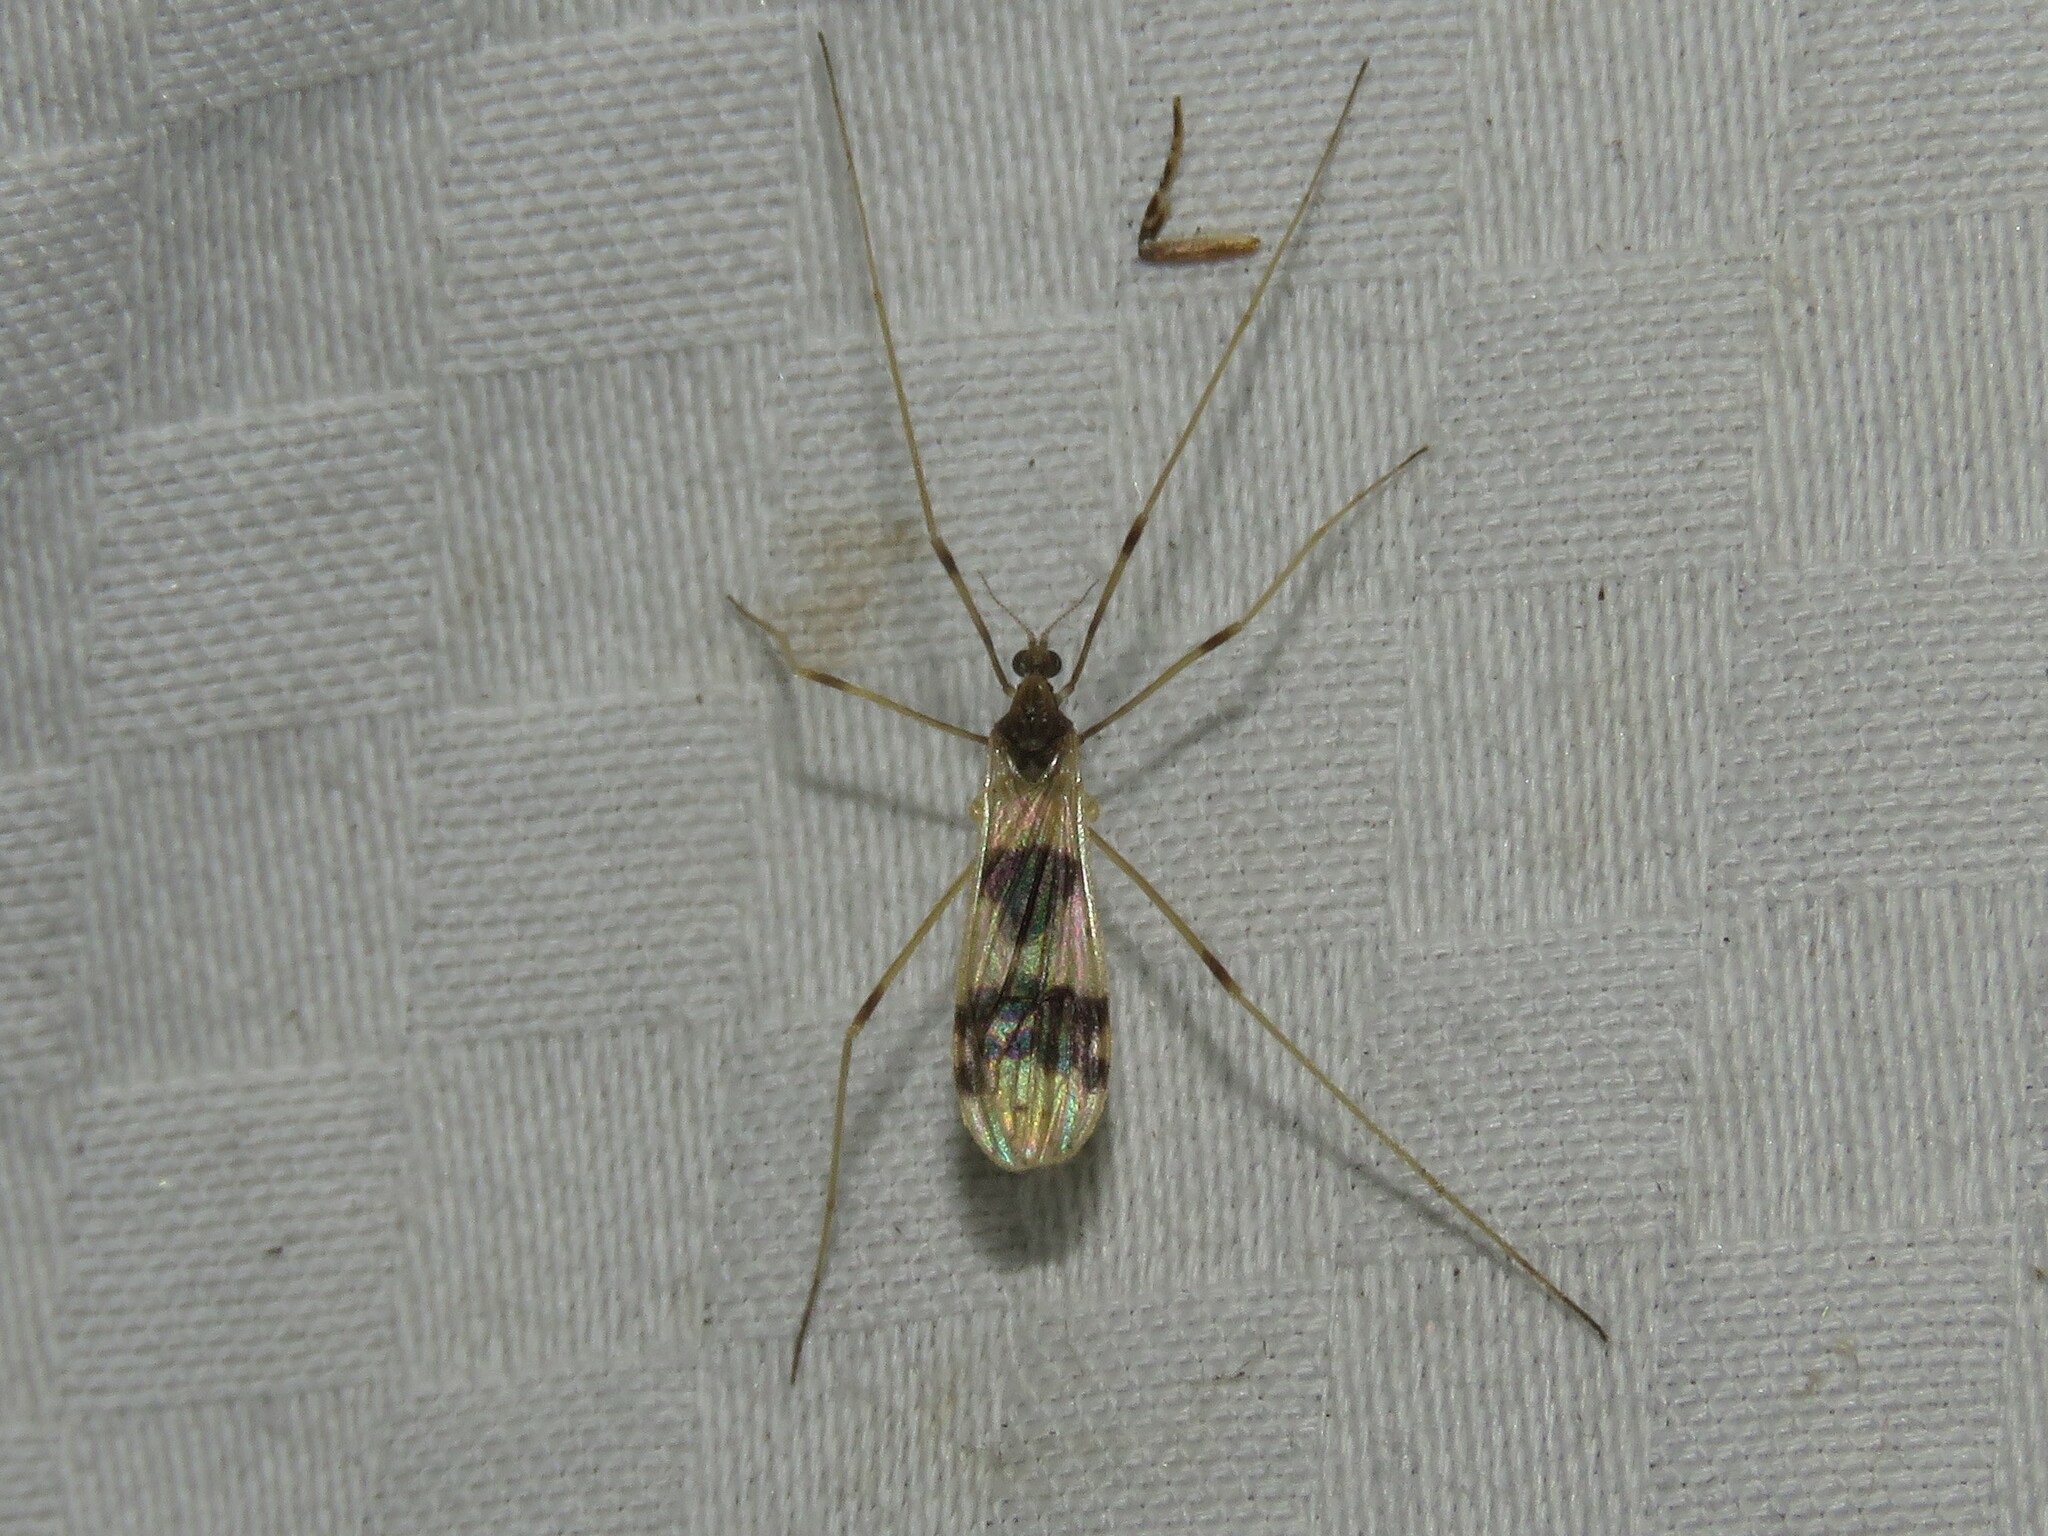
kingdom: Animalia
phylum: Arthropoda
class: Insecta
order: Diptera
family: Limoniidae
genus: Ilisia
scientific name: Ilisia venusta
